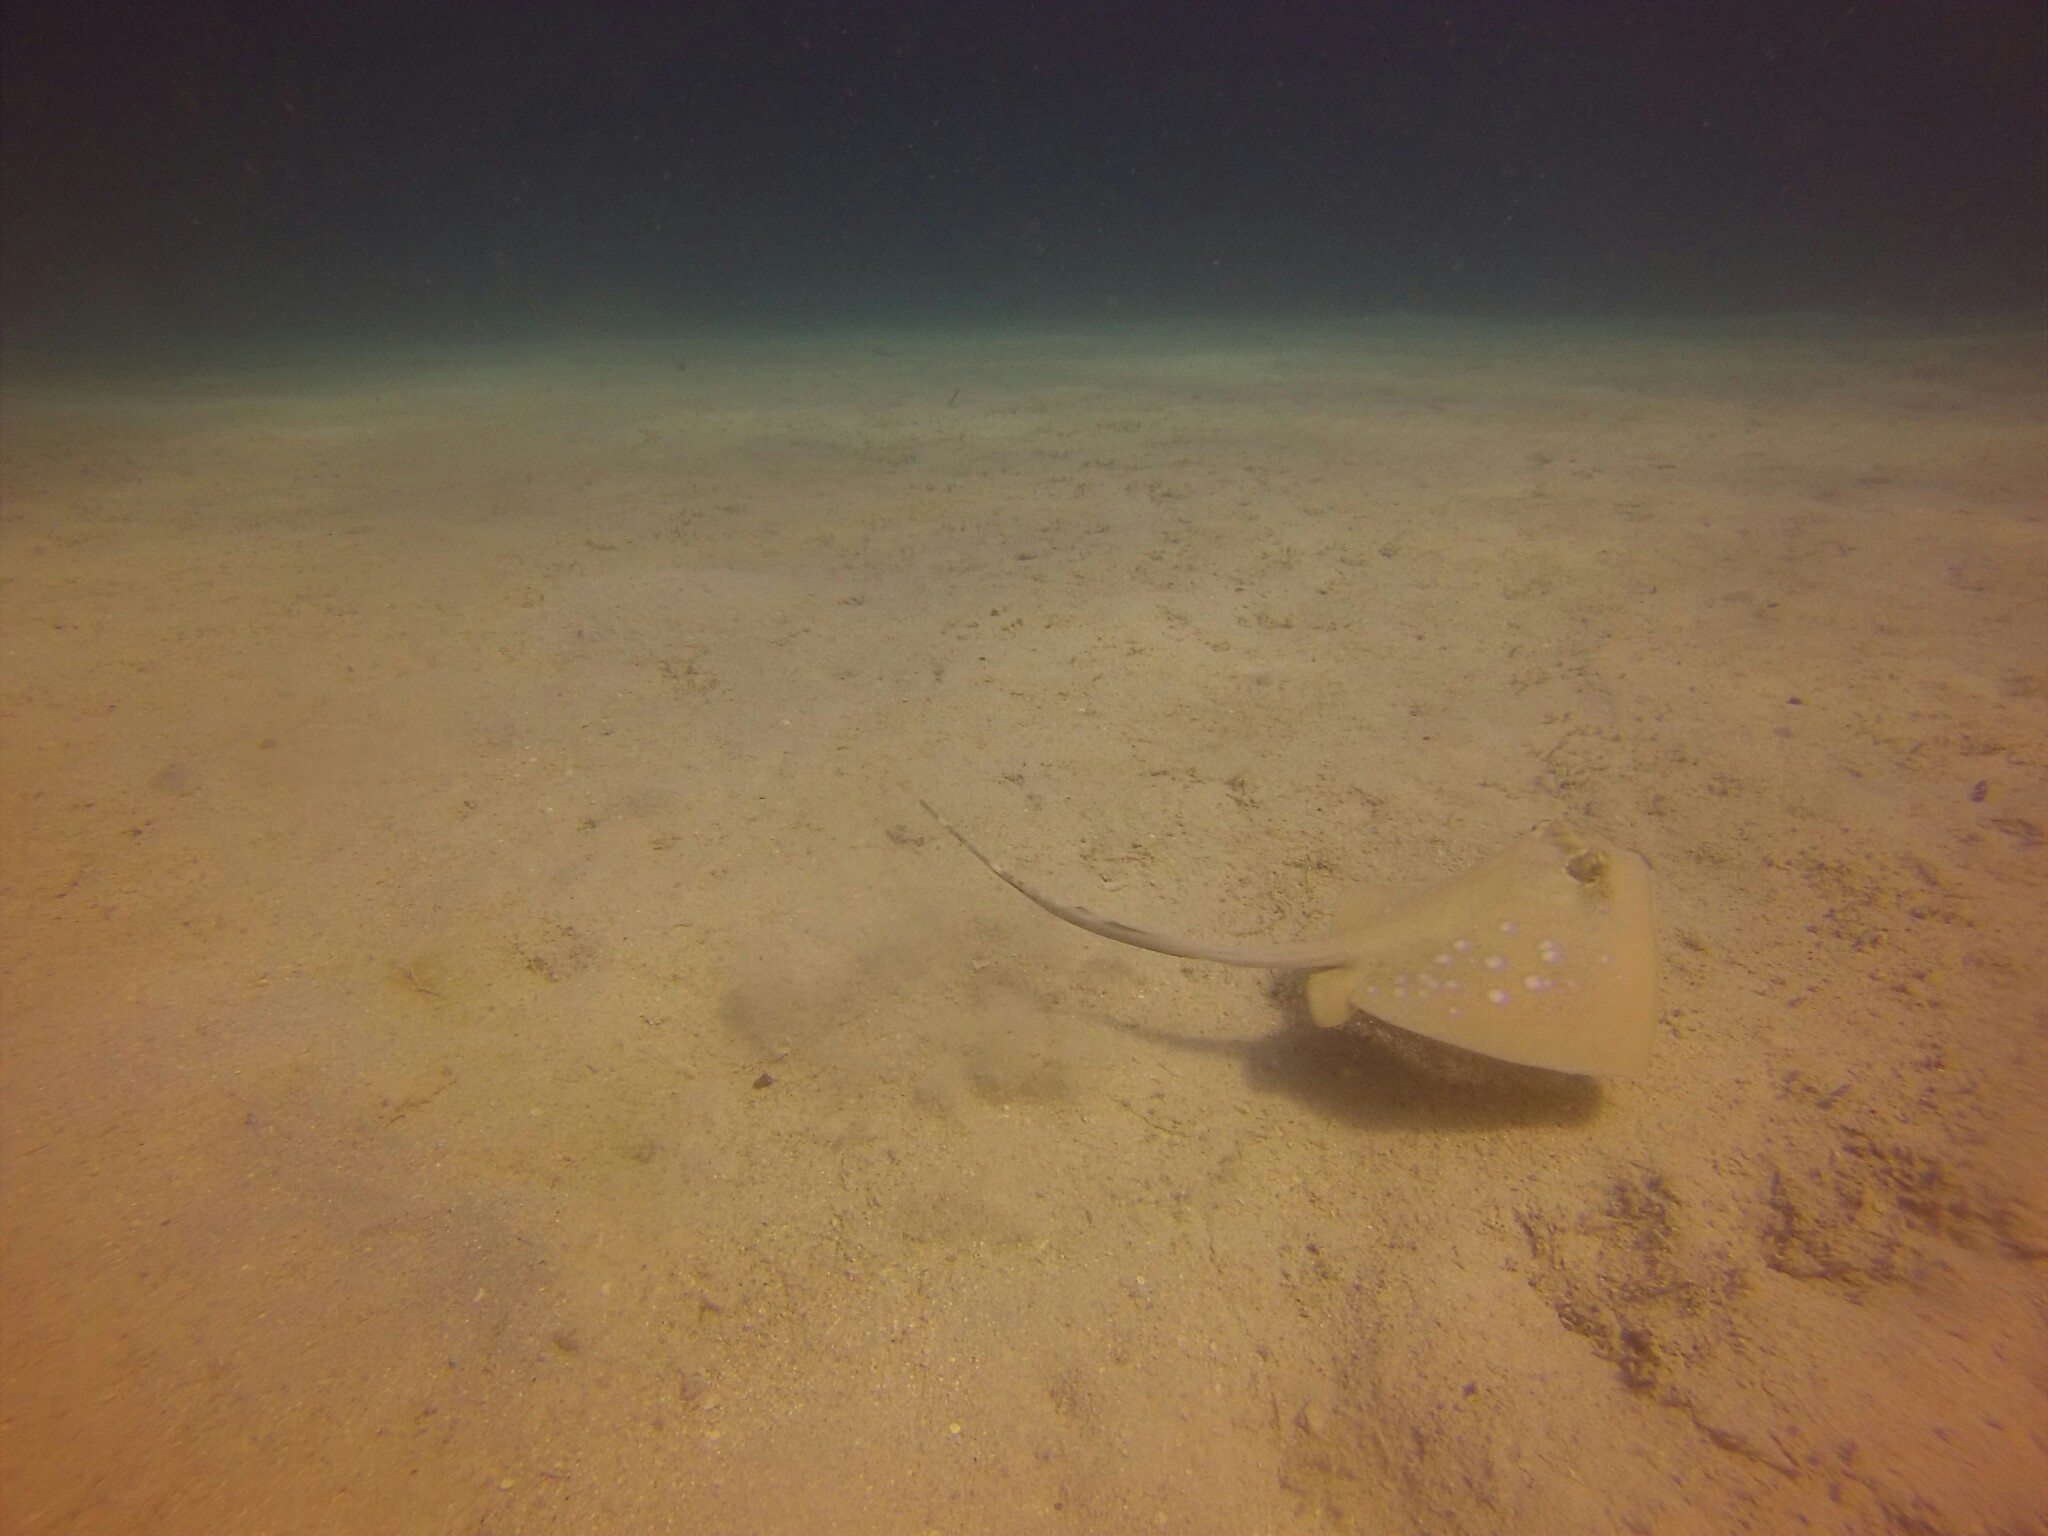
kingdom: Animalia
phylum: Chordata
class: Elasmobranchii
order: Myliobatiformes
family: Dasyatidae
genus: Neotrygon
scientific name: Neotrygon orientale
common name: Oriental bluespotted maskray
